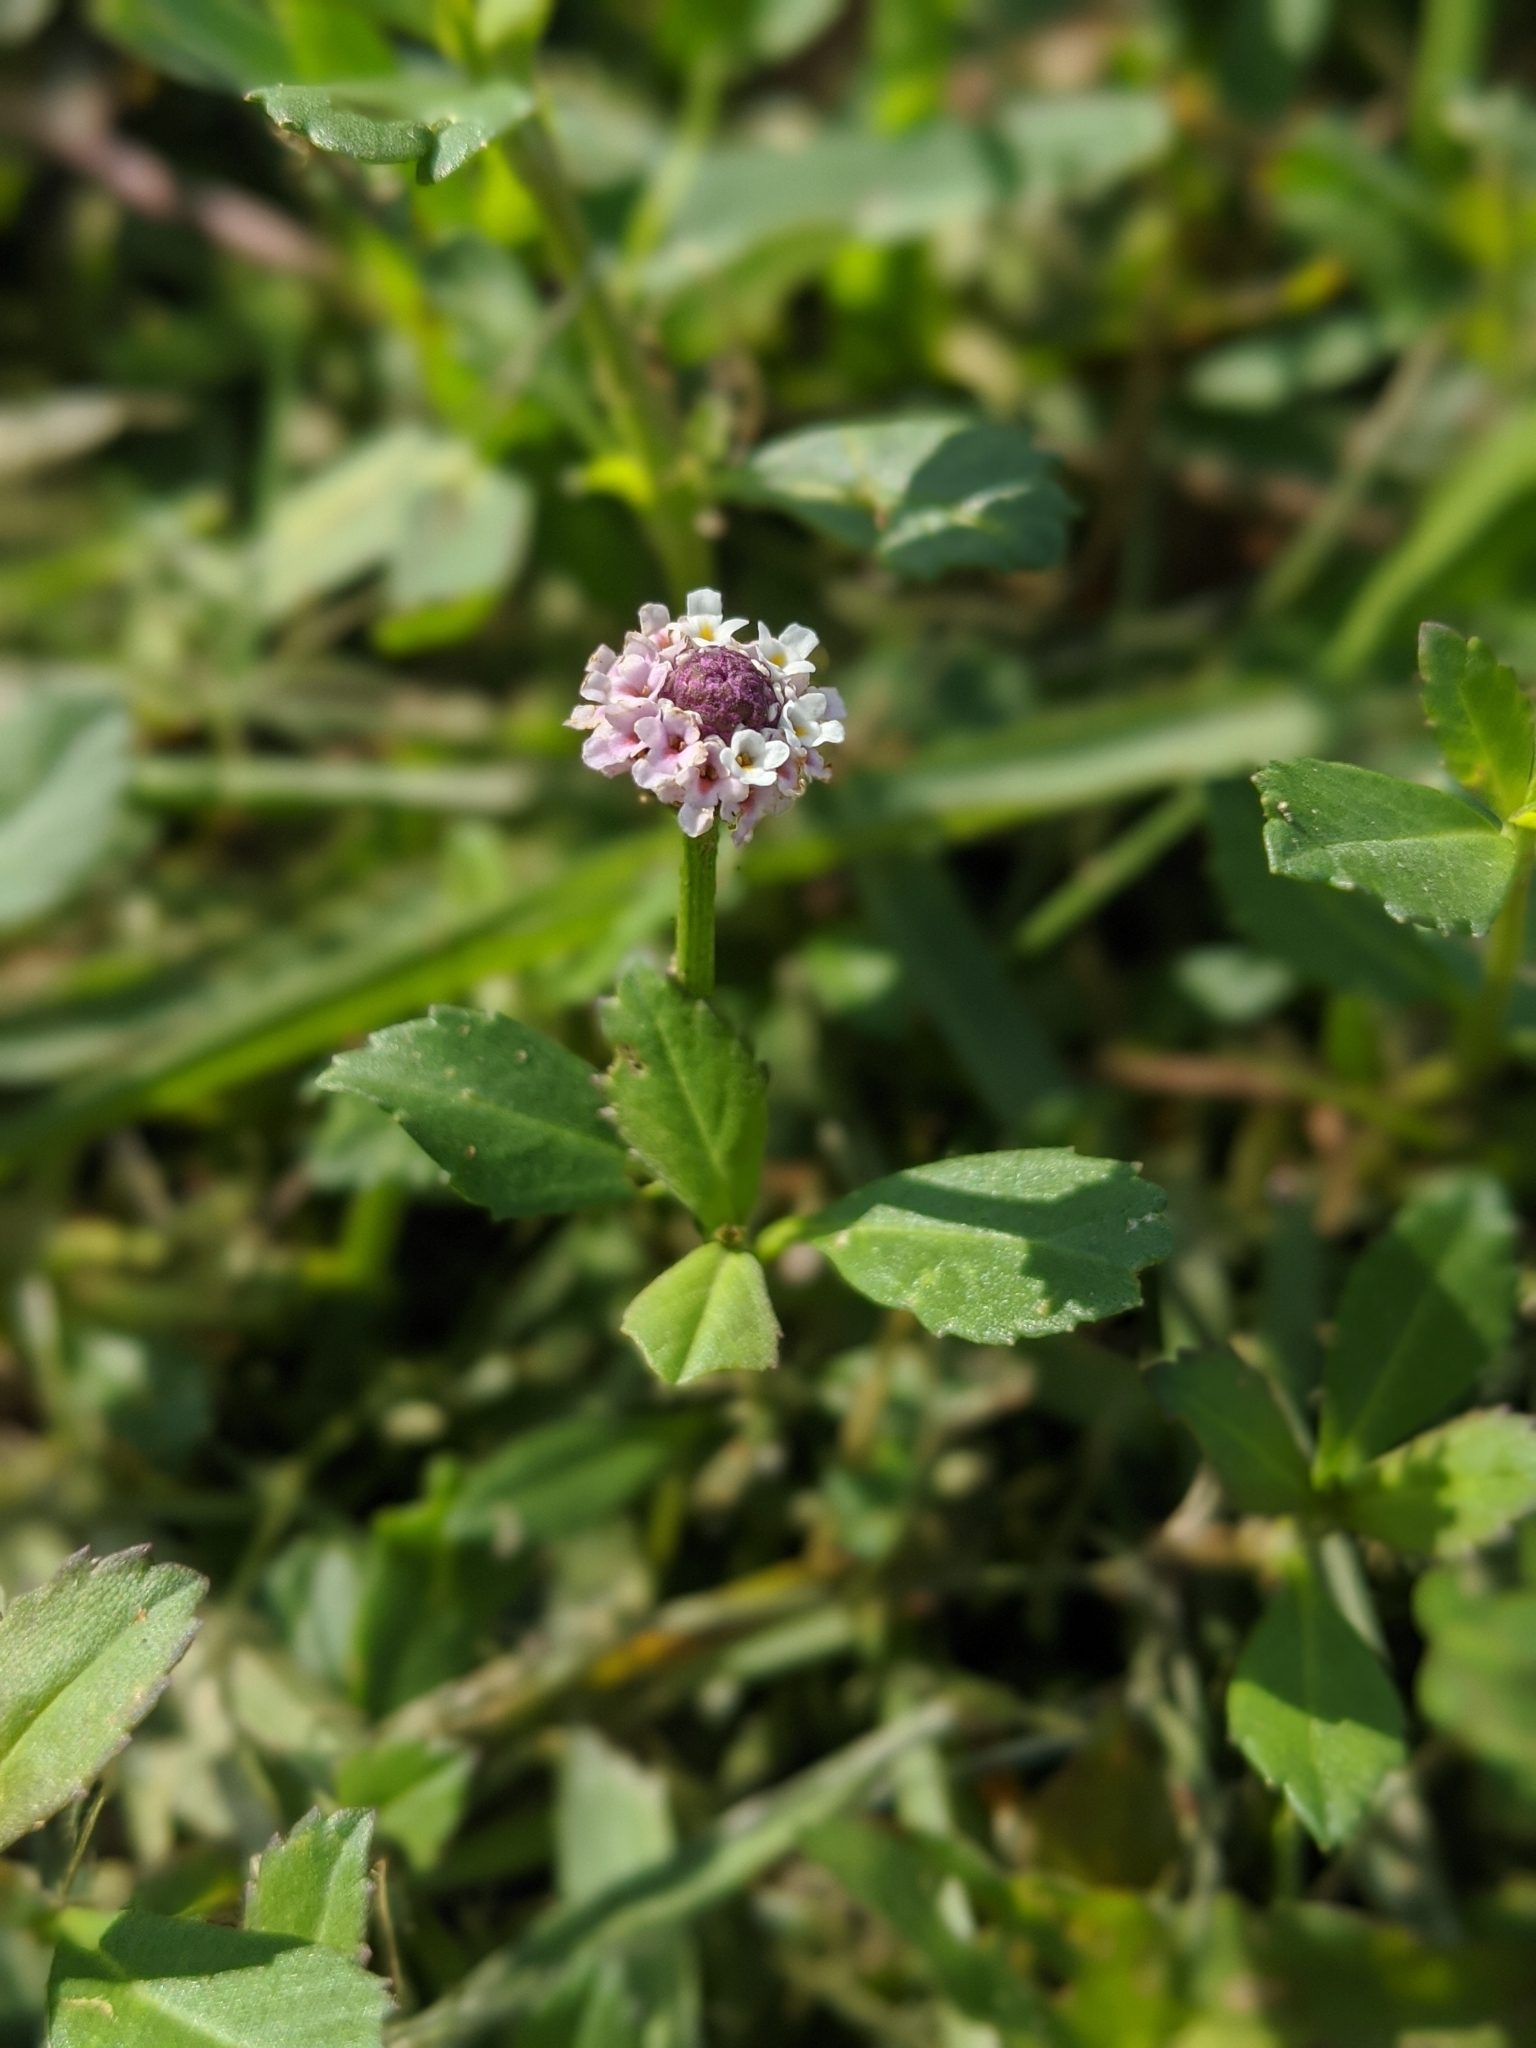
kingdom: Plantae
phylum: Tracheophyta
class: Magnoliopsida
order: Lamiales
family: Verbenaceae
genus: Phyla
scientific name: Phyla nodiflora
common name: Frogfruit
